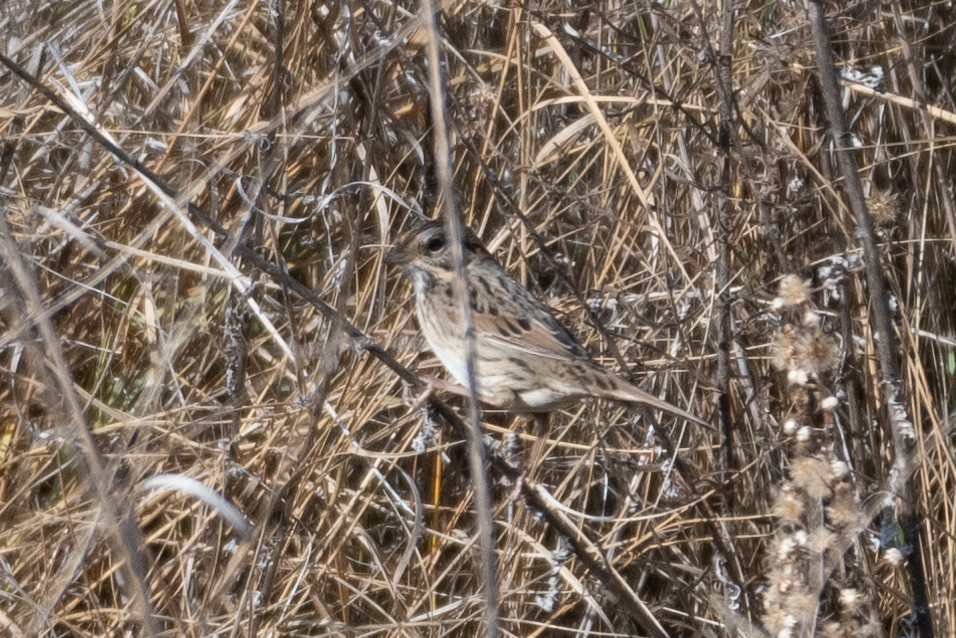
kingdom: Animalia
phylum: Chordata
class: Aves
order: Passeriformes
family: Passerellidae
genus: Melospiza
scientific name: Melospiza lincolnii
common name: Lincoln's sparrow
